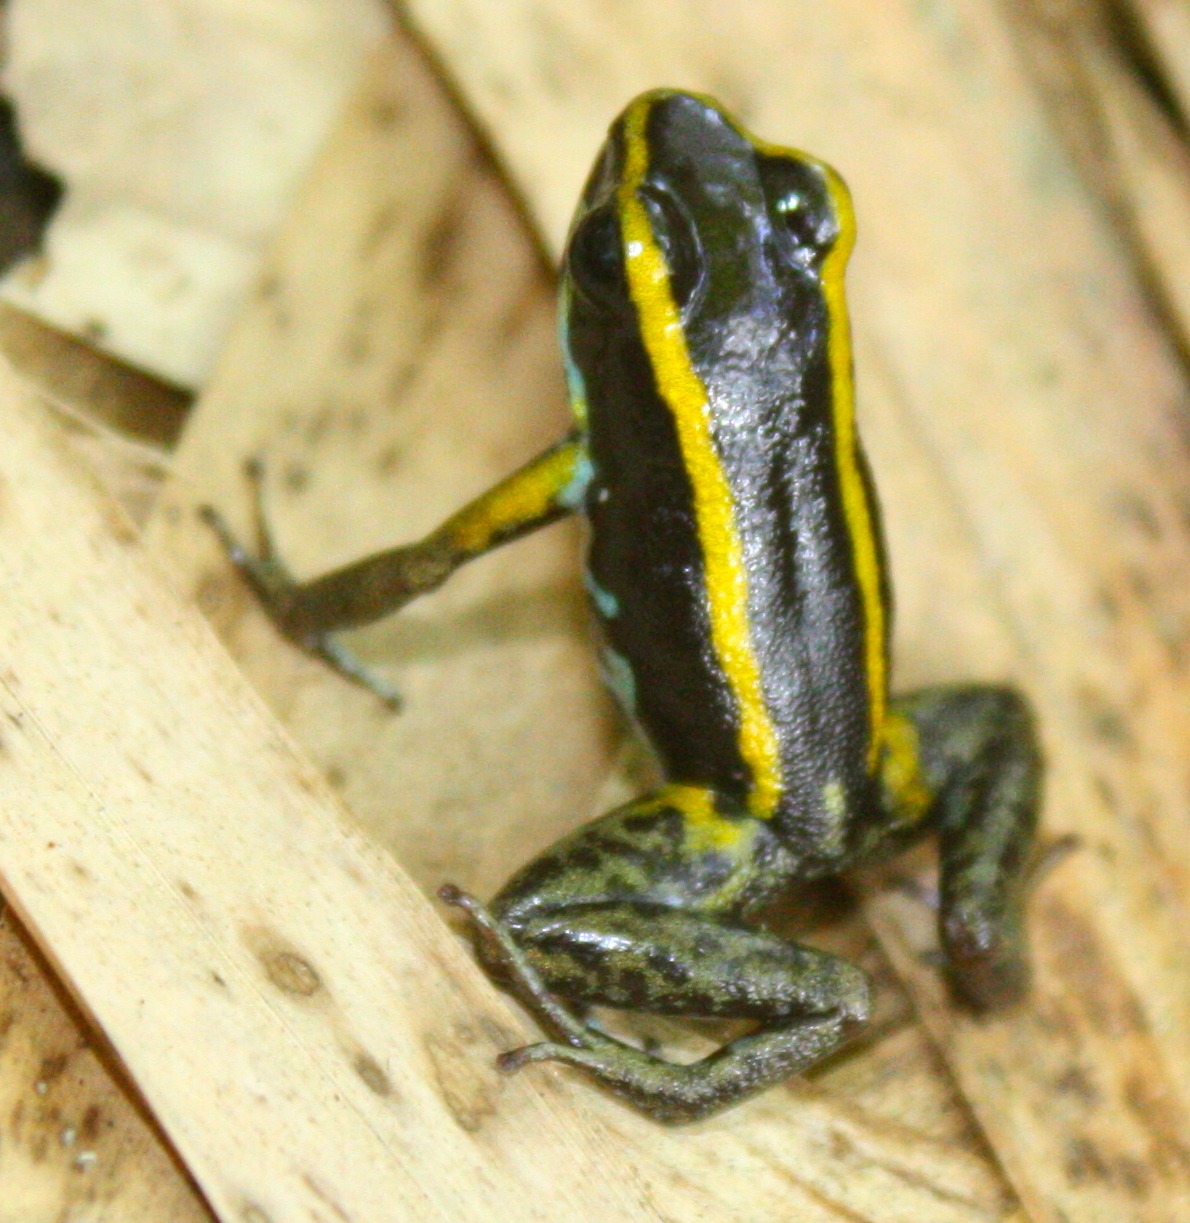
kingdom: Animalia
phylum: Chordata
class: Amphibia
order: Anura
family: Dendrobatidae
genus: Phyllobates
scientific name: Phyllobates lugubris
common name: Lovely poison frog
